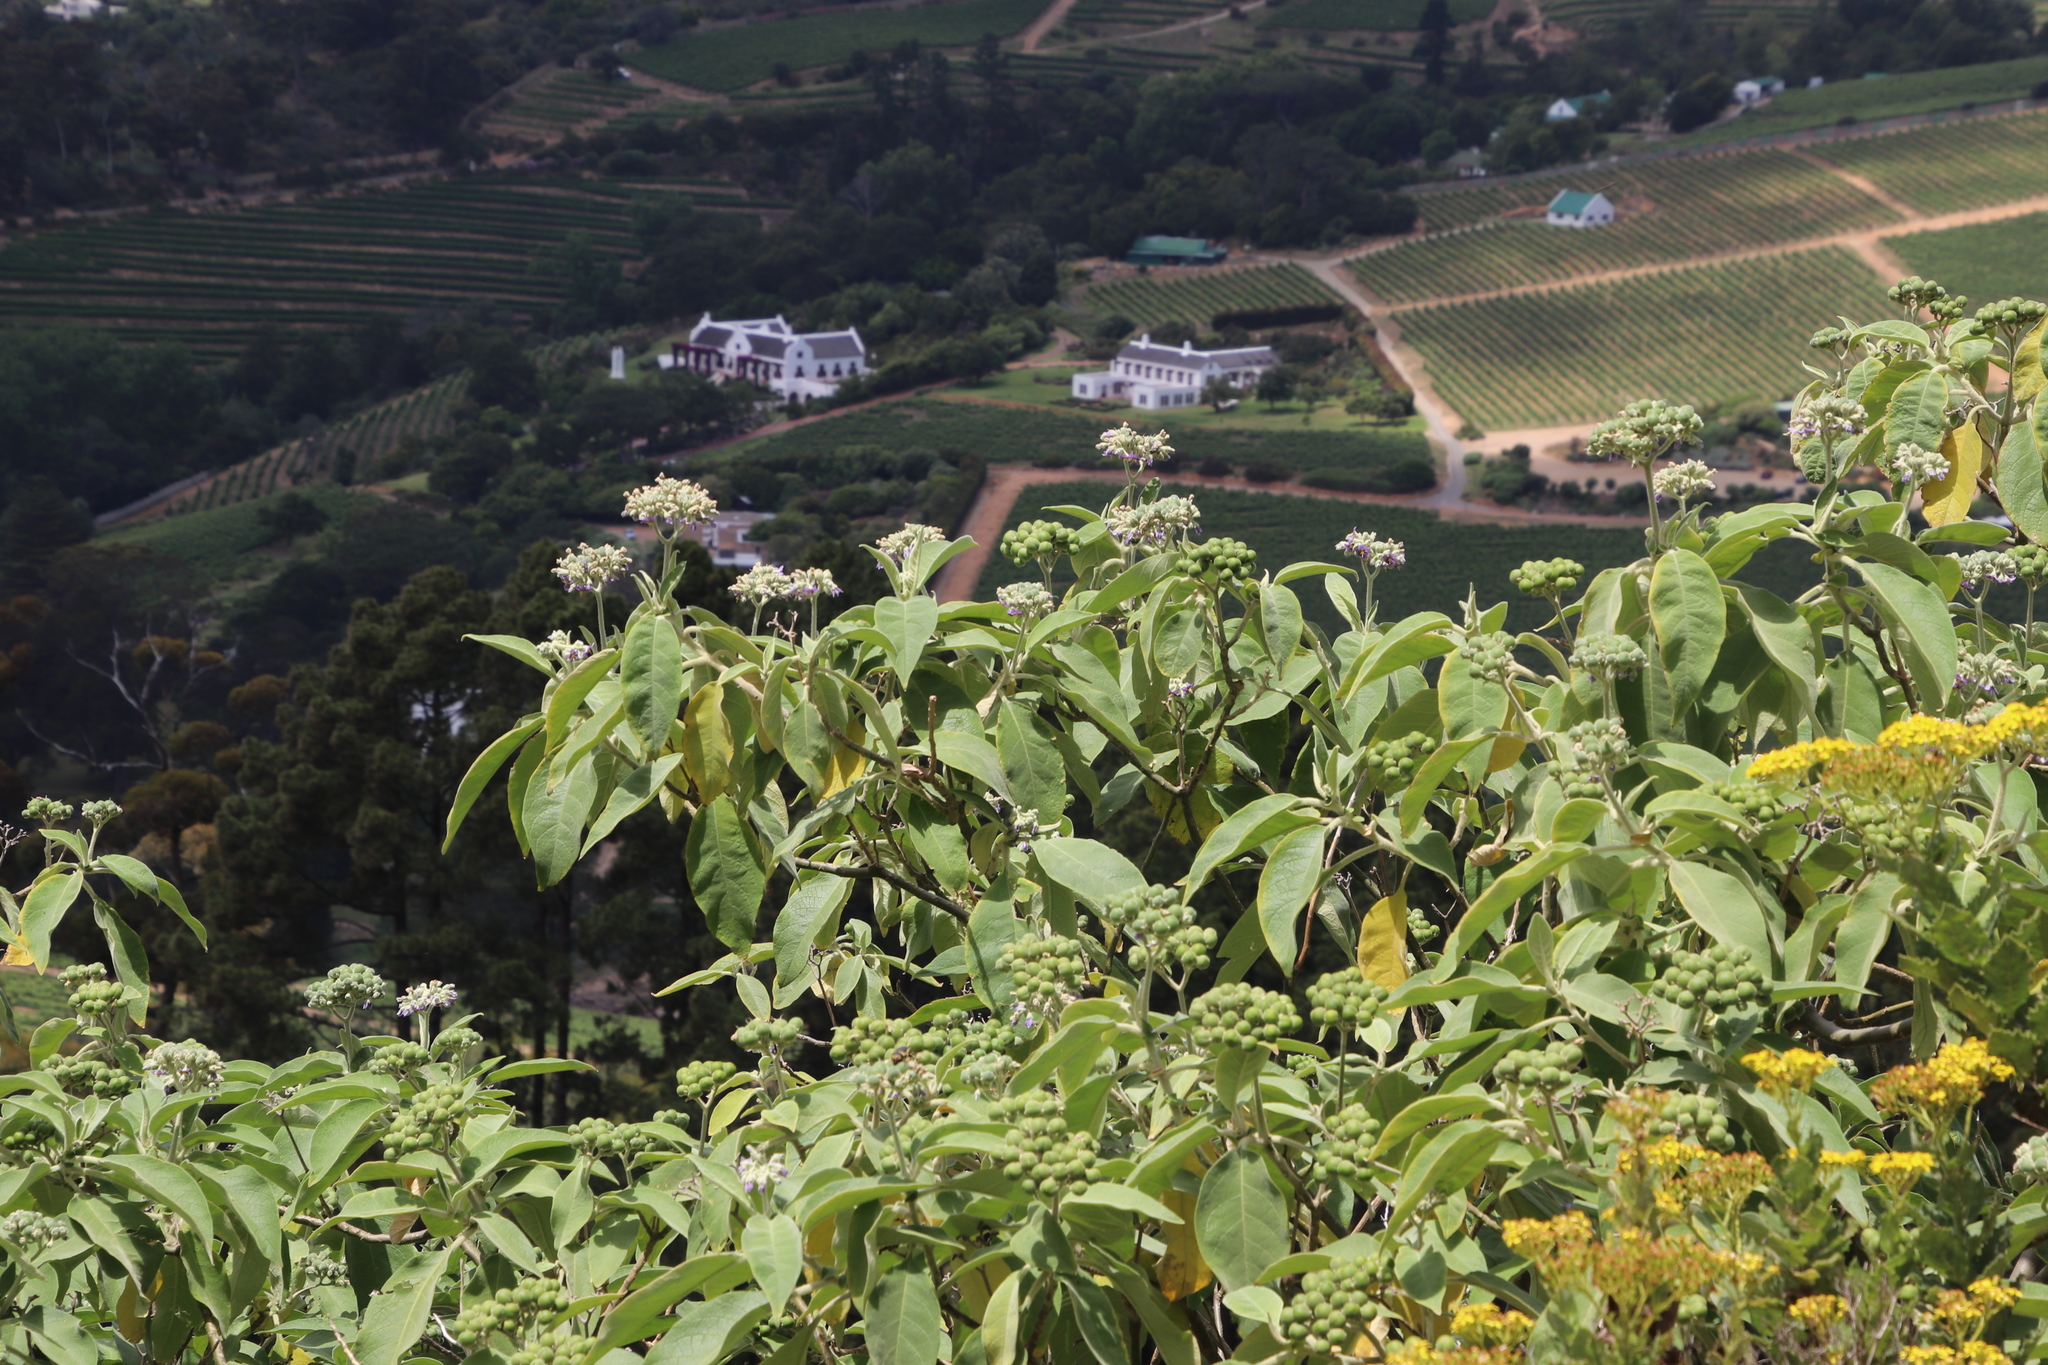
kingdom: Plantae
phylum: Tracheophyta
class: Magnoliopsida
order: Solanales
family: Solanaceae
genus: Solanum
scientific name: Solanum mauritianum
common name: Earleaf nightshade
